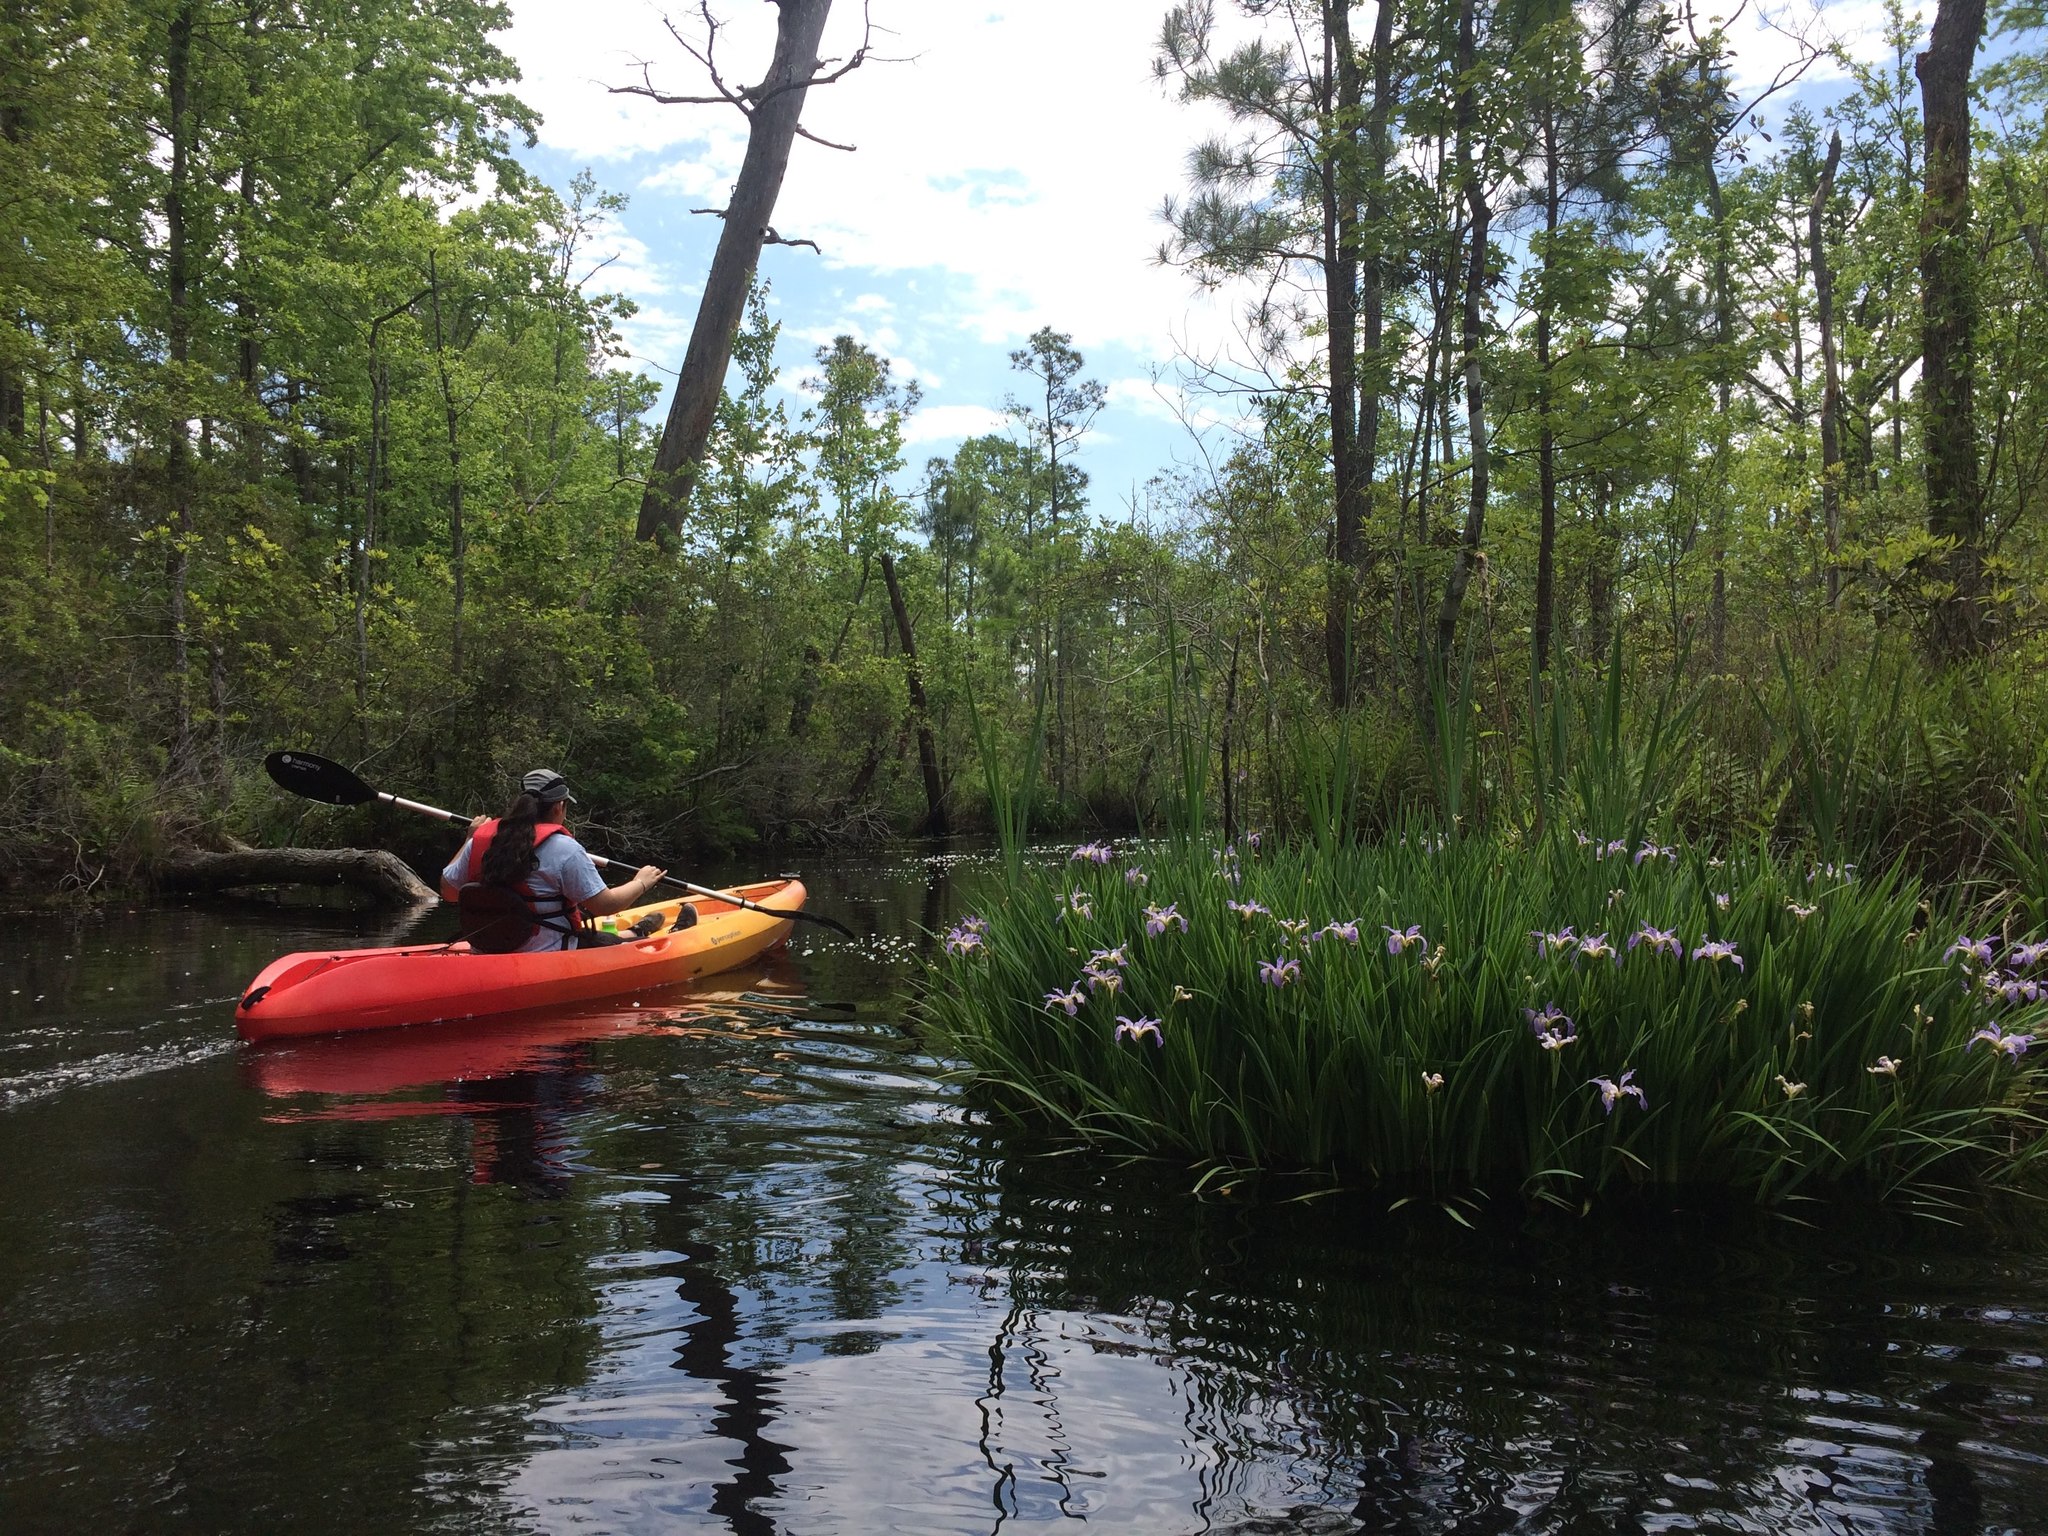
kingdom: Plantae
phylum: Tracheophyta
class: Liliopsida
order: Asparagales
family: Iridaceae
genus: Iris
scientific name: Iris virginica
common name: Southern blue flag
